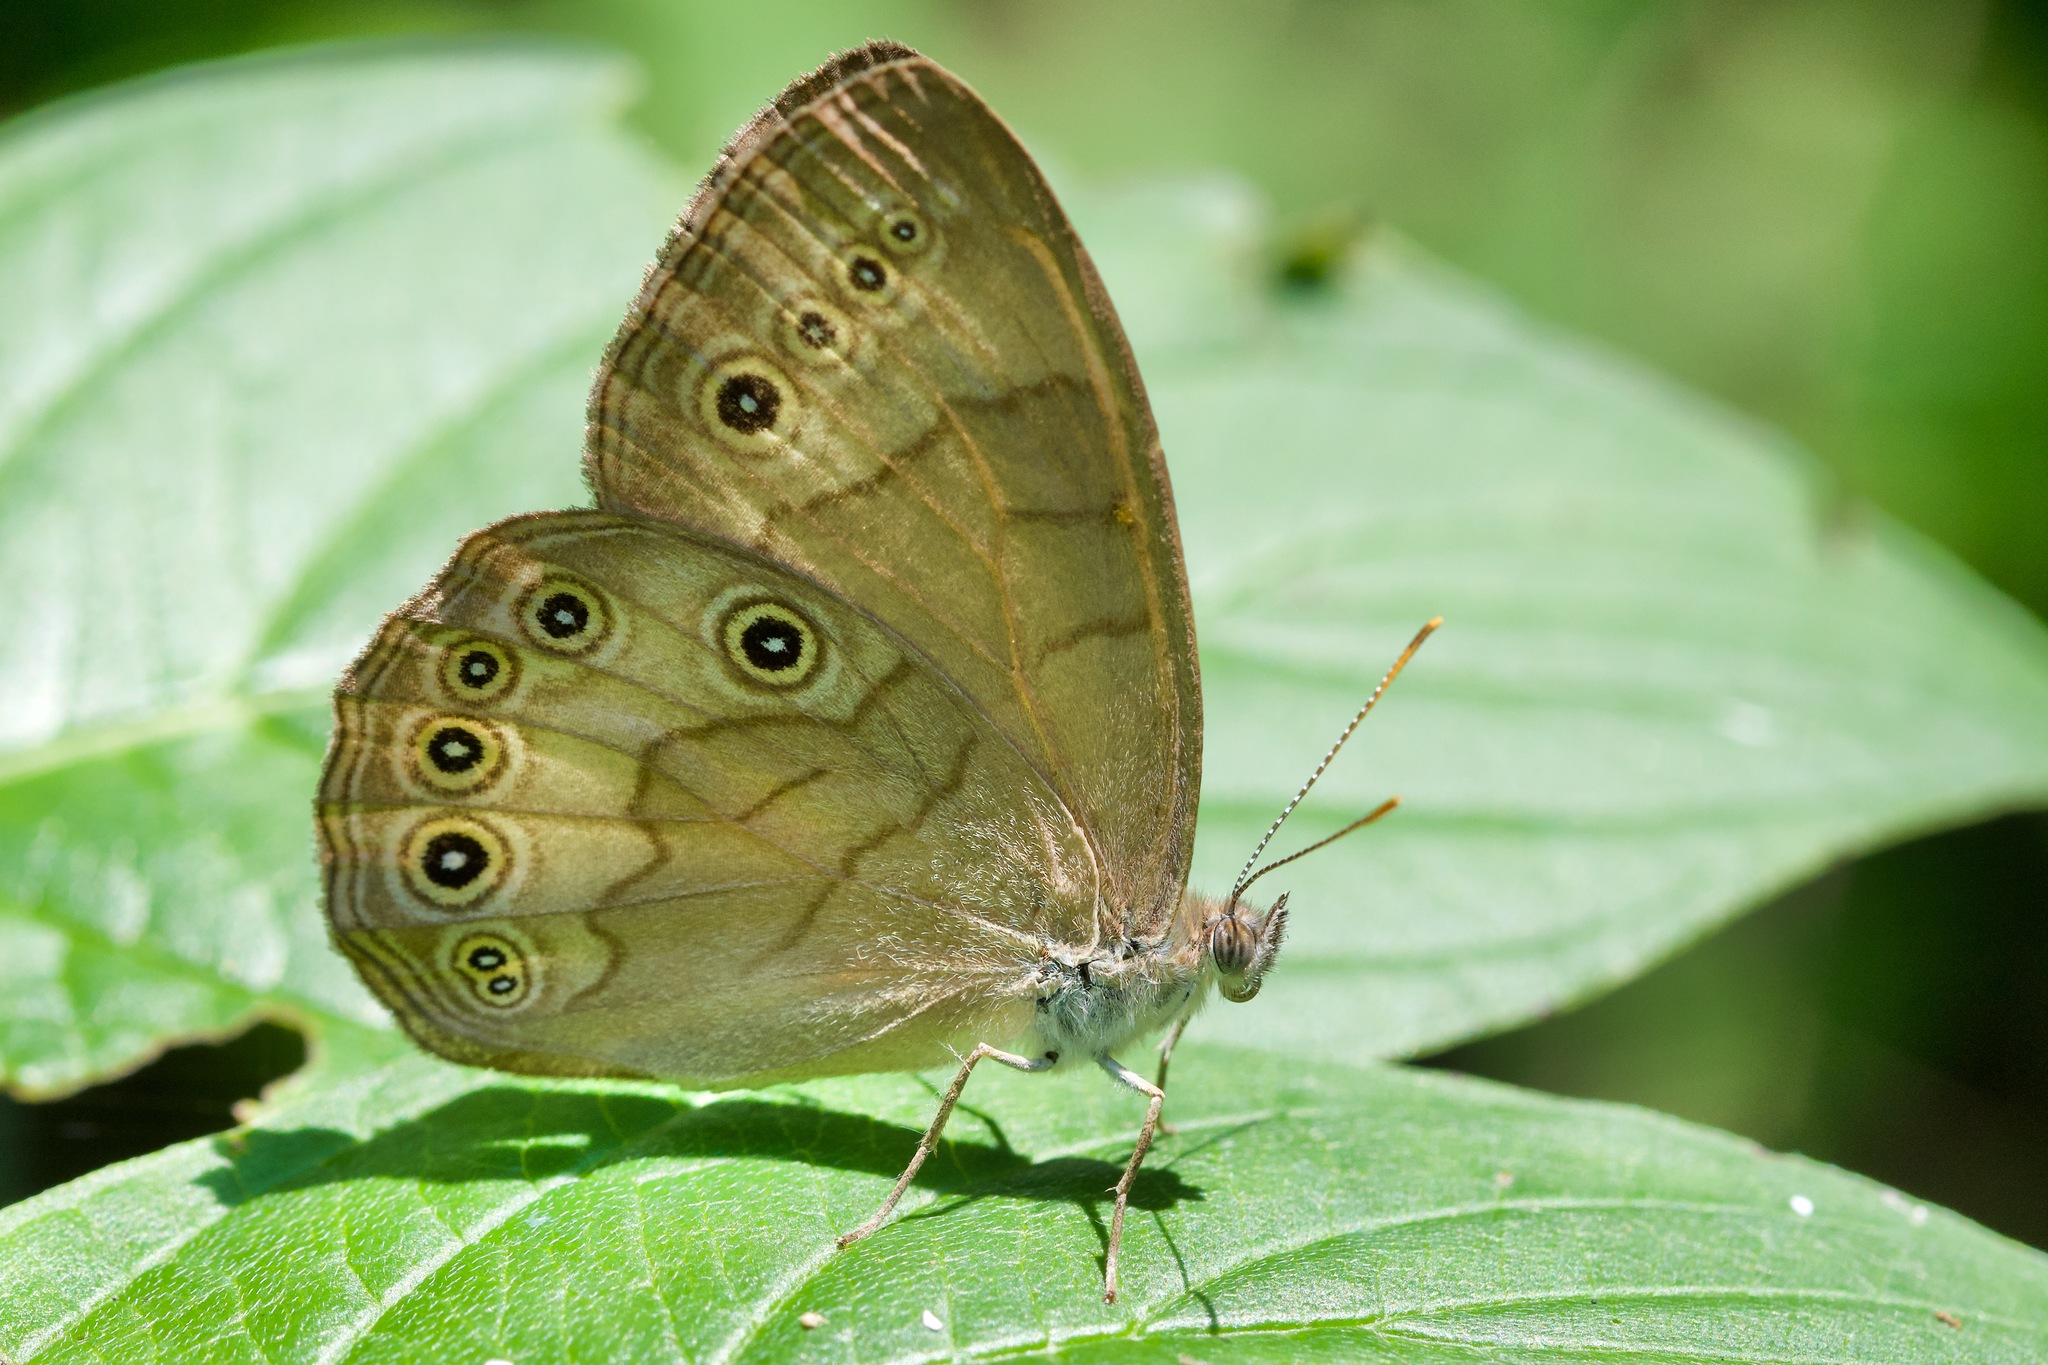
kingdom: Animalia
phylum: Arthropoda
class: Insecta
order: Lepidoptera
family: Nymphalidae
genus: Lethe
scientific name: Lethe eurydice
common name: Eyed brown
